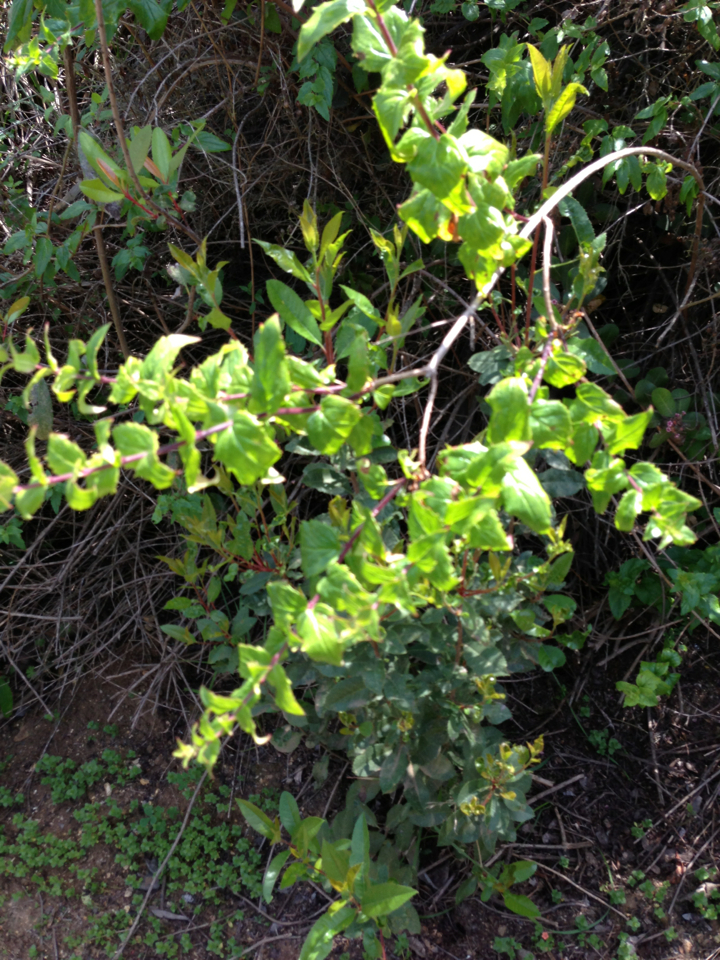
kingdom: Plantae
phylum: Tracheophyta
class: Magnoliopsida
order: Lamiales
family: Plantaginaceae
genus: Keckiella
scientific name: Keckiella cordifolia
